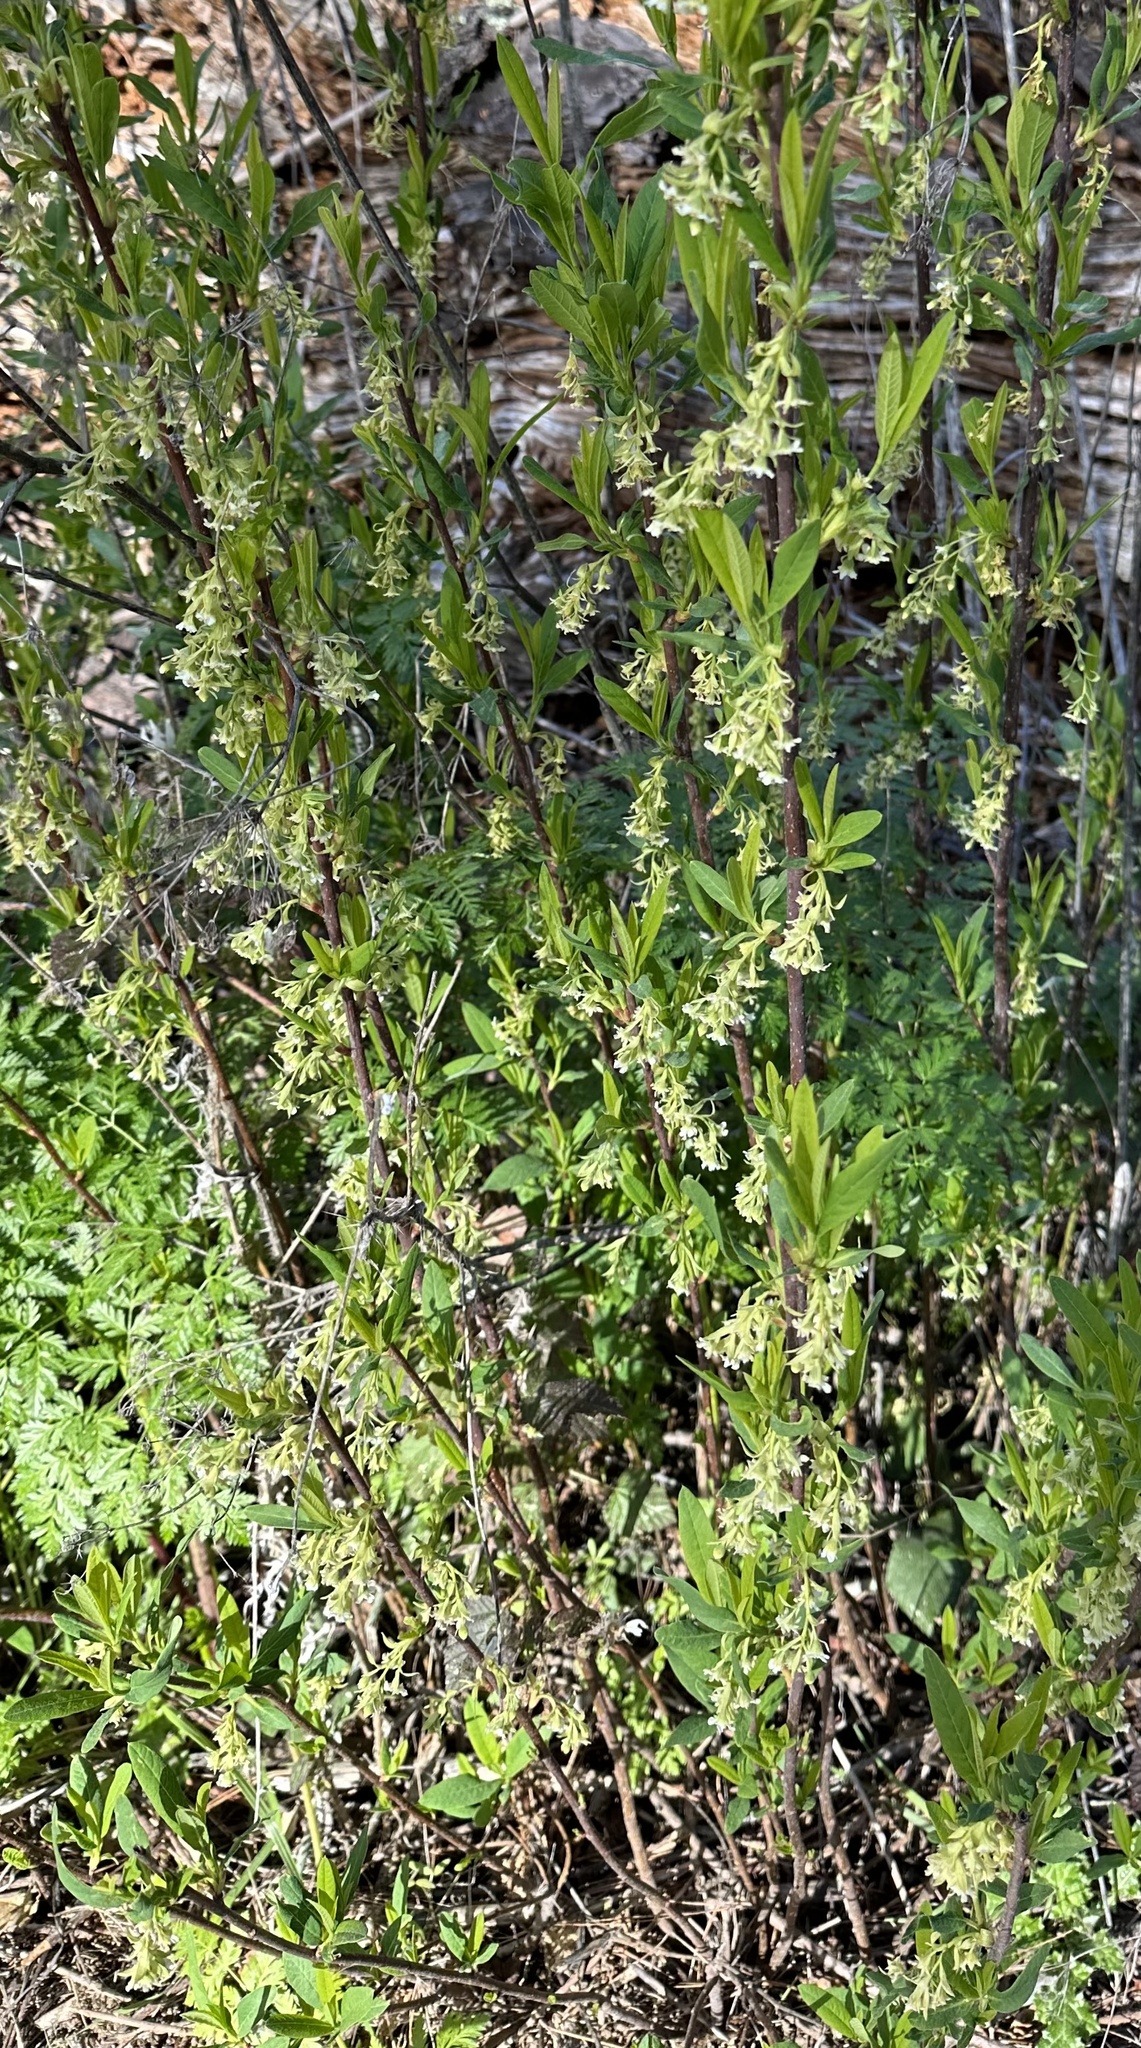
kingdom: Plantae
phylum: Tracheophyta
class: Magnoliopsida
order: Rosales
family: Rosaceae
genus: Oemleria
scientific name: Oemleria cerasiformis
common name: Osoberry
